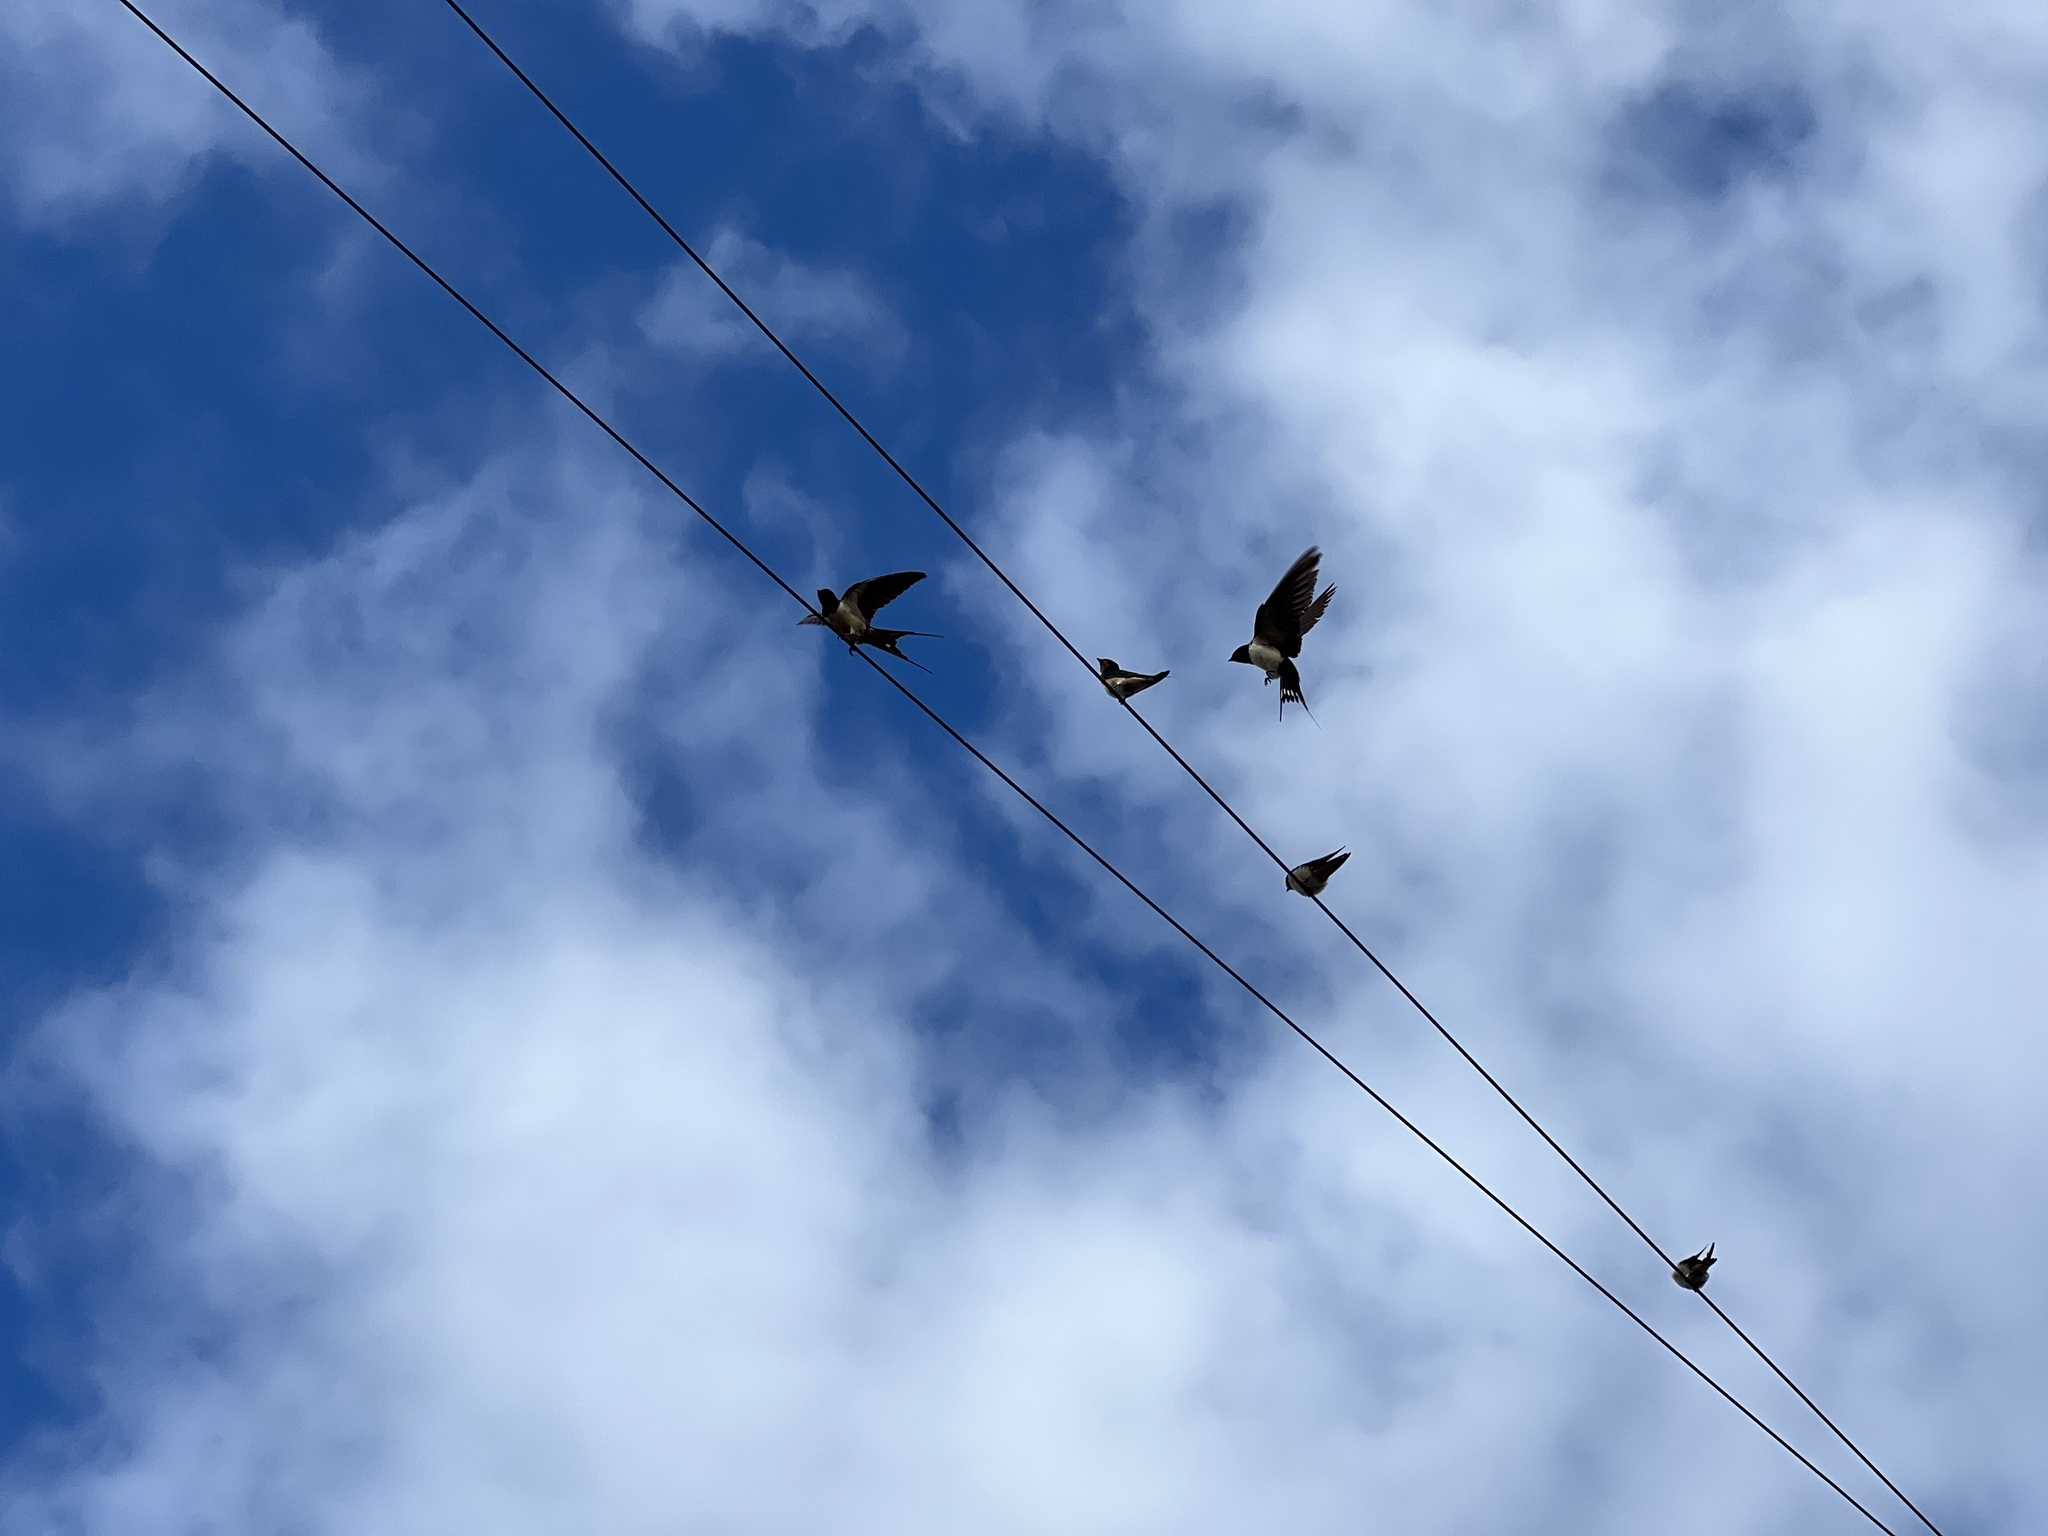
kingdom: Animalia
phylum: Chordata
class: Aves
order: Passeriformes
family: Hirundinidae
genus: Hirundo
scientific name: Hirundo rustica
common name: Barn swallow
